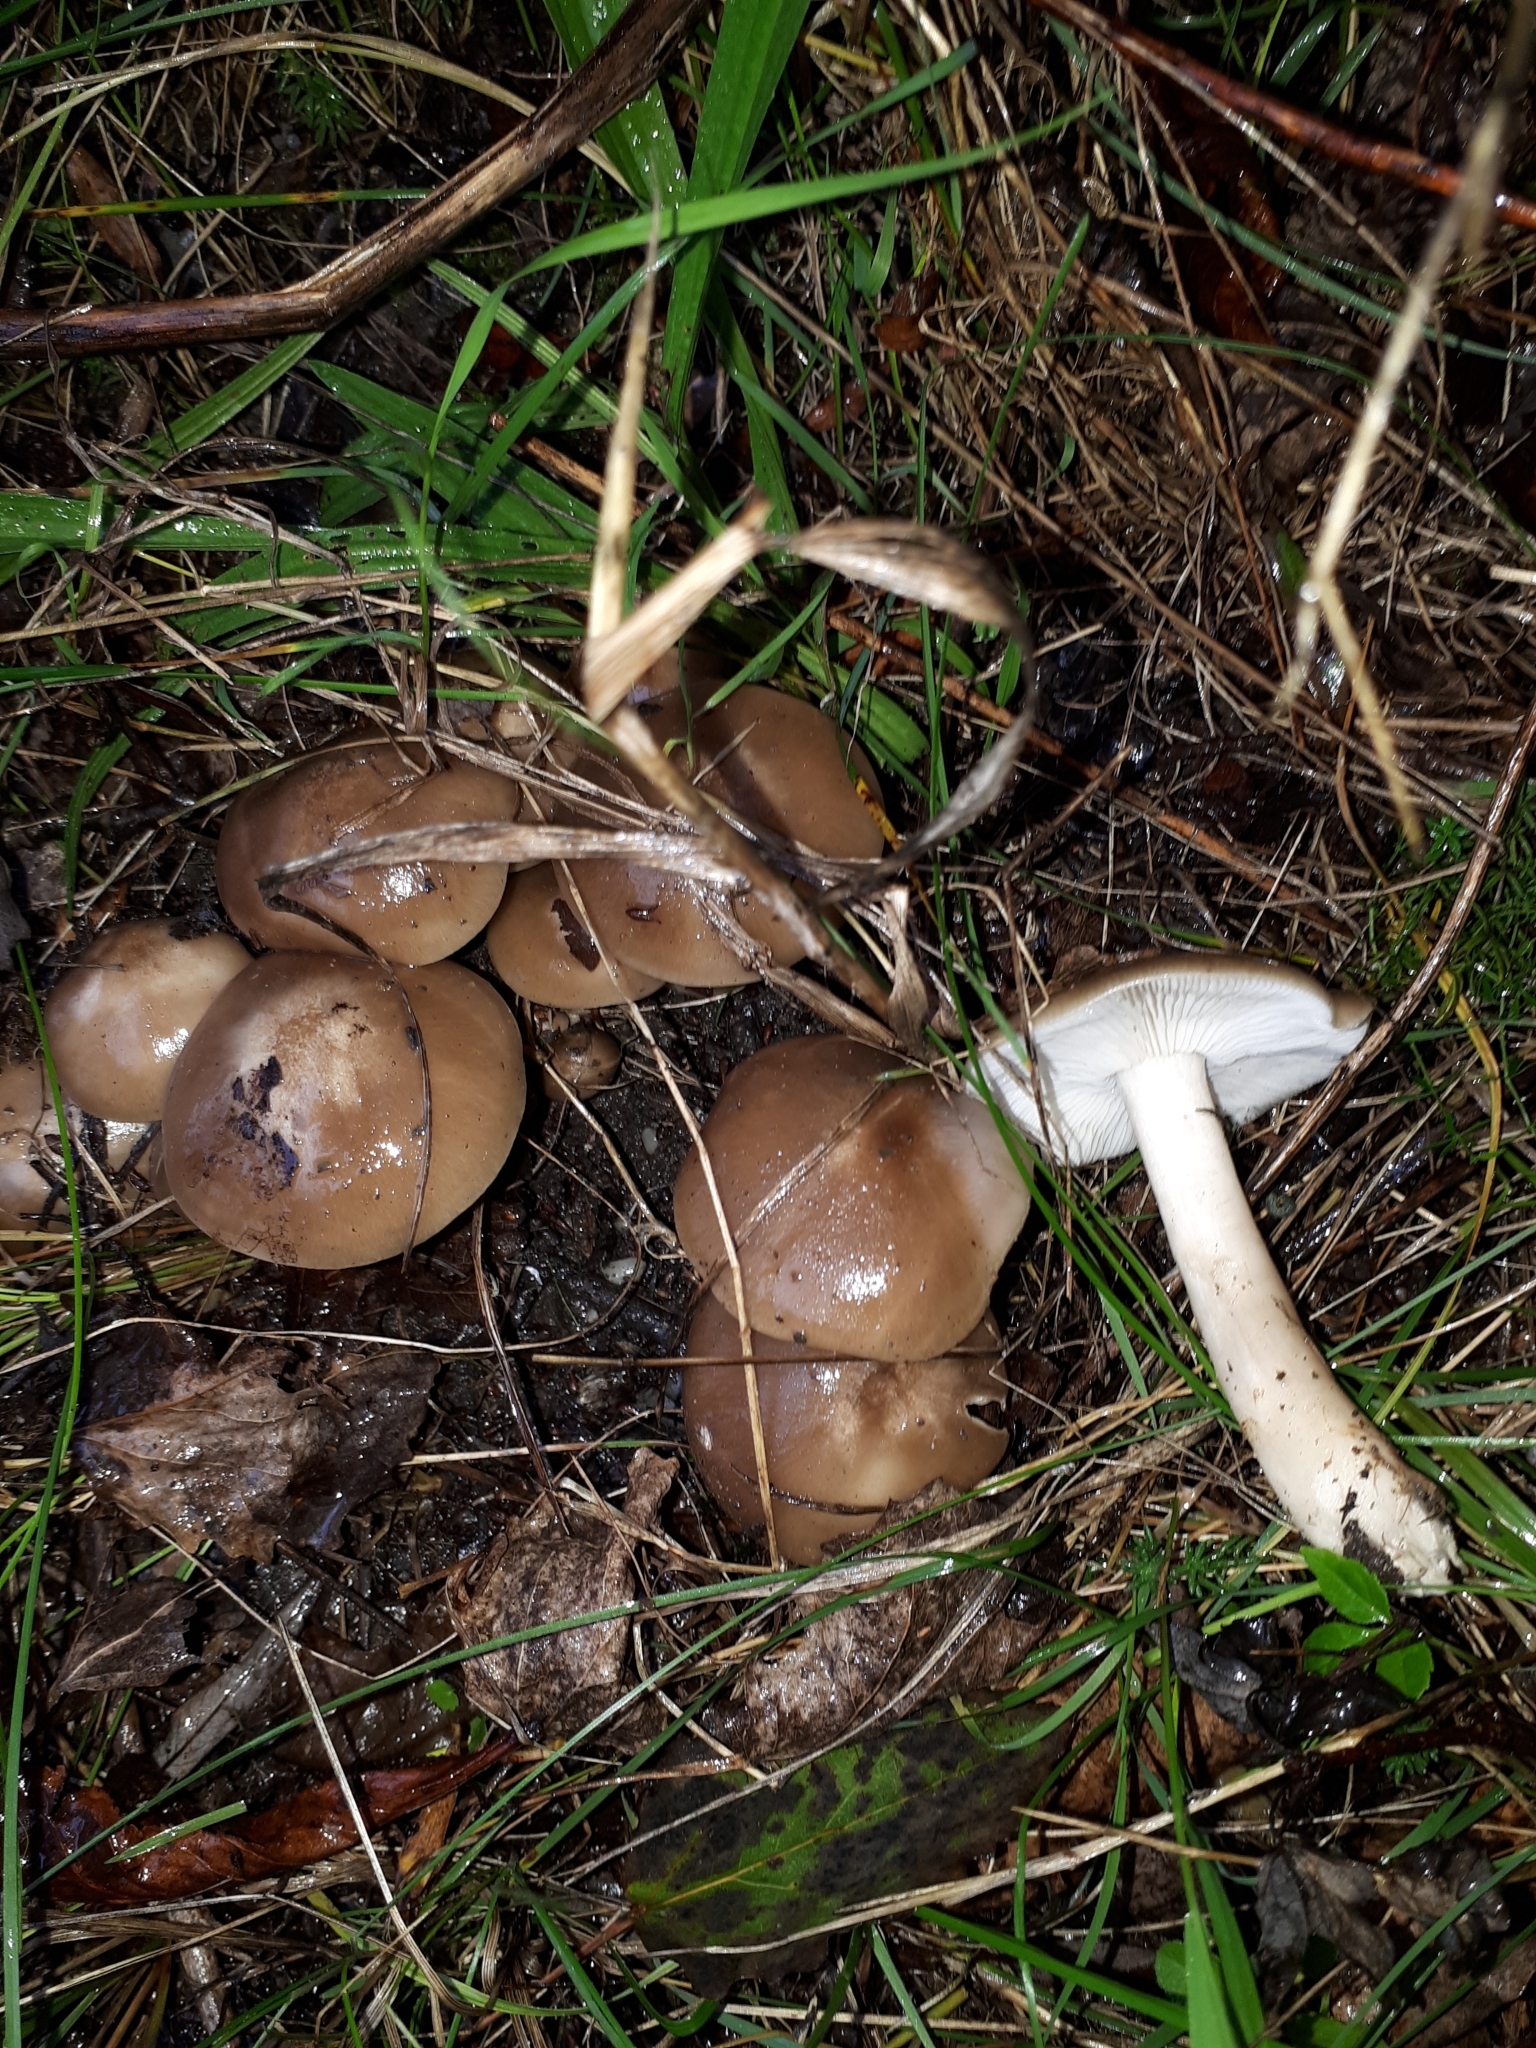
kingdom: Fungi
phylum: Basidiomycota
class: Agaricomycetes
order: Agaricales
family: Lyophyllaceae
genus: Lyophyllum
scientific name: Lyophyllum decastes
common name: Clustered domecap
